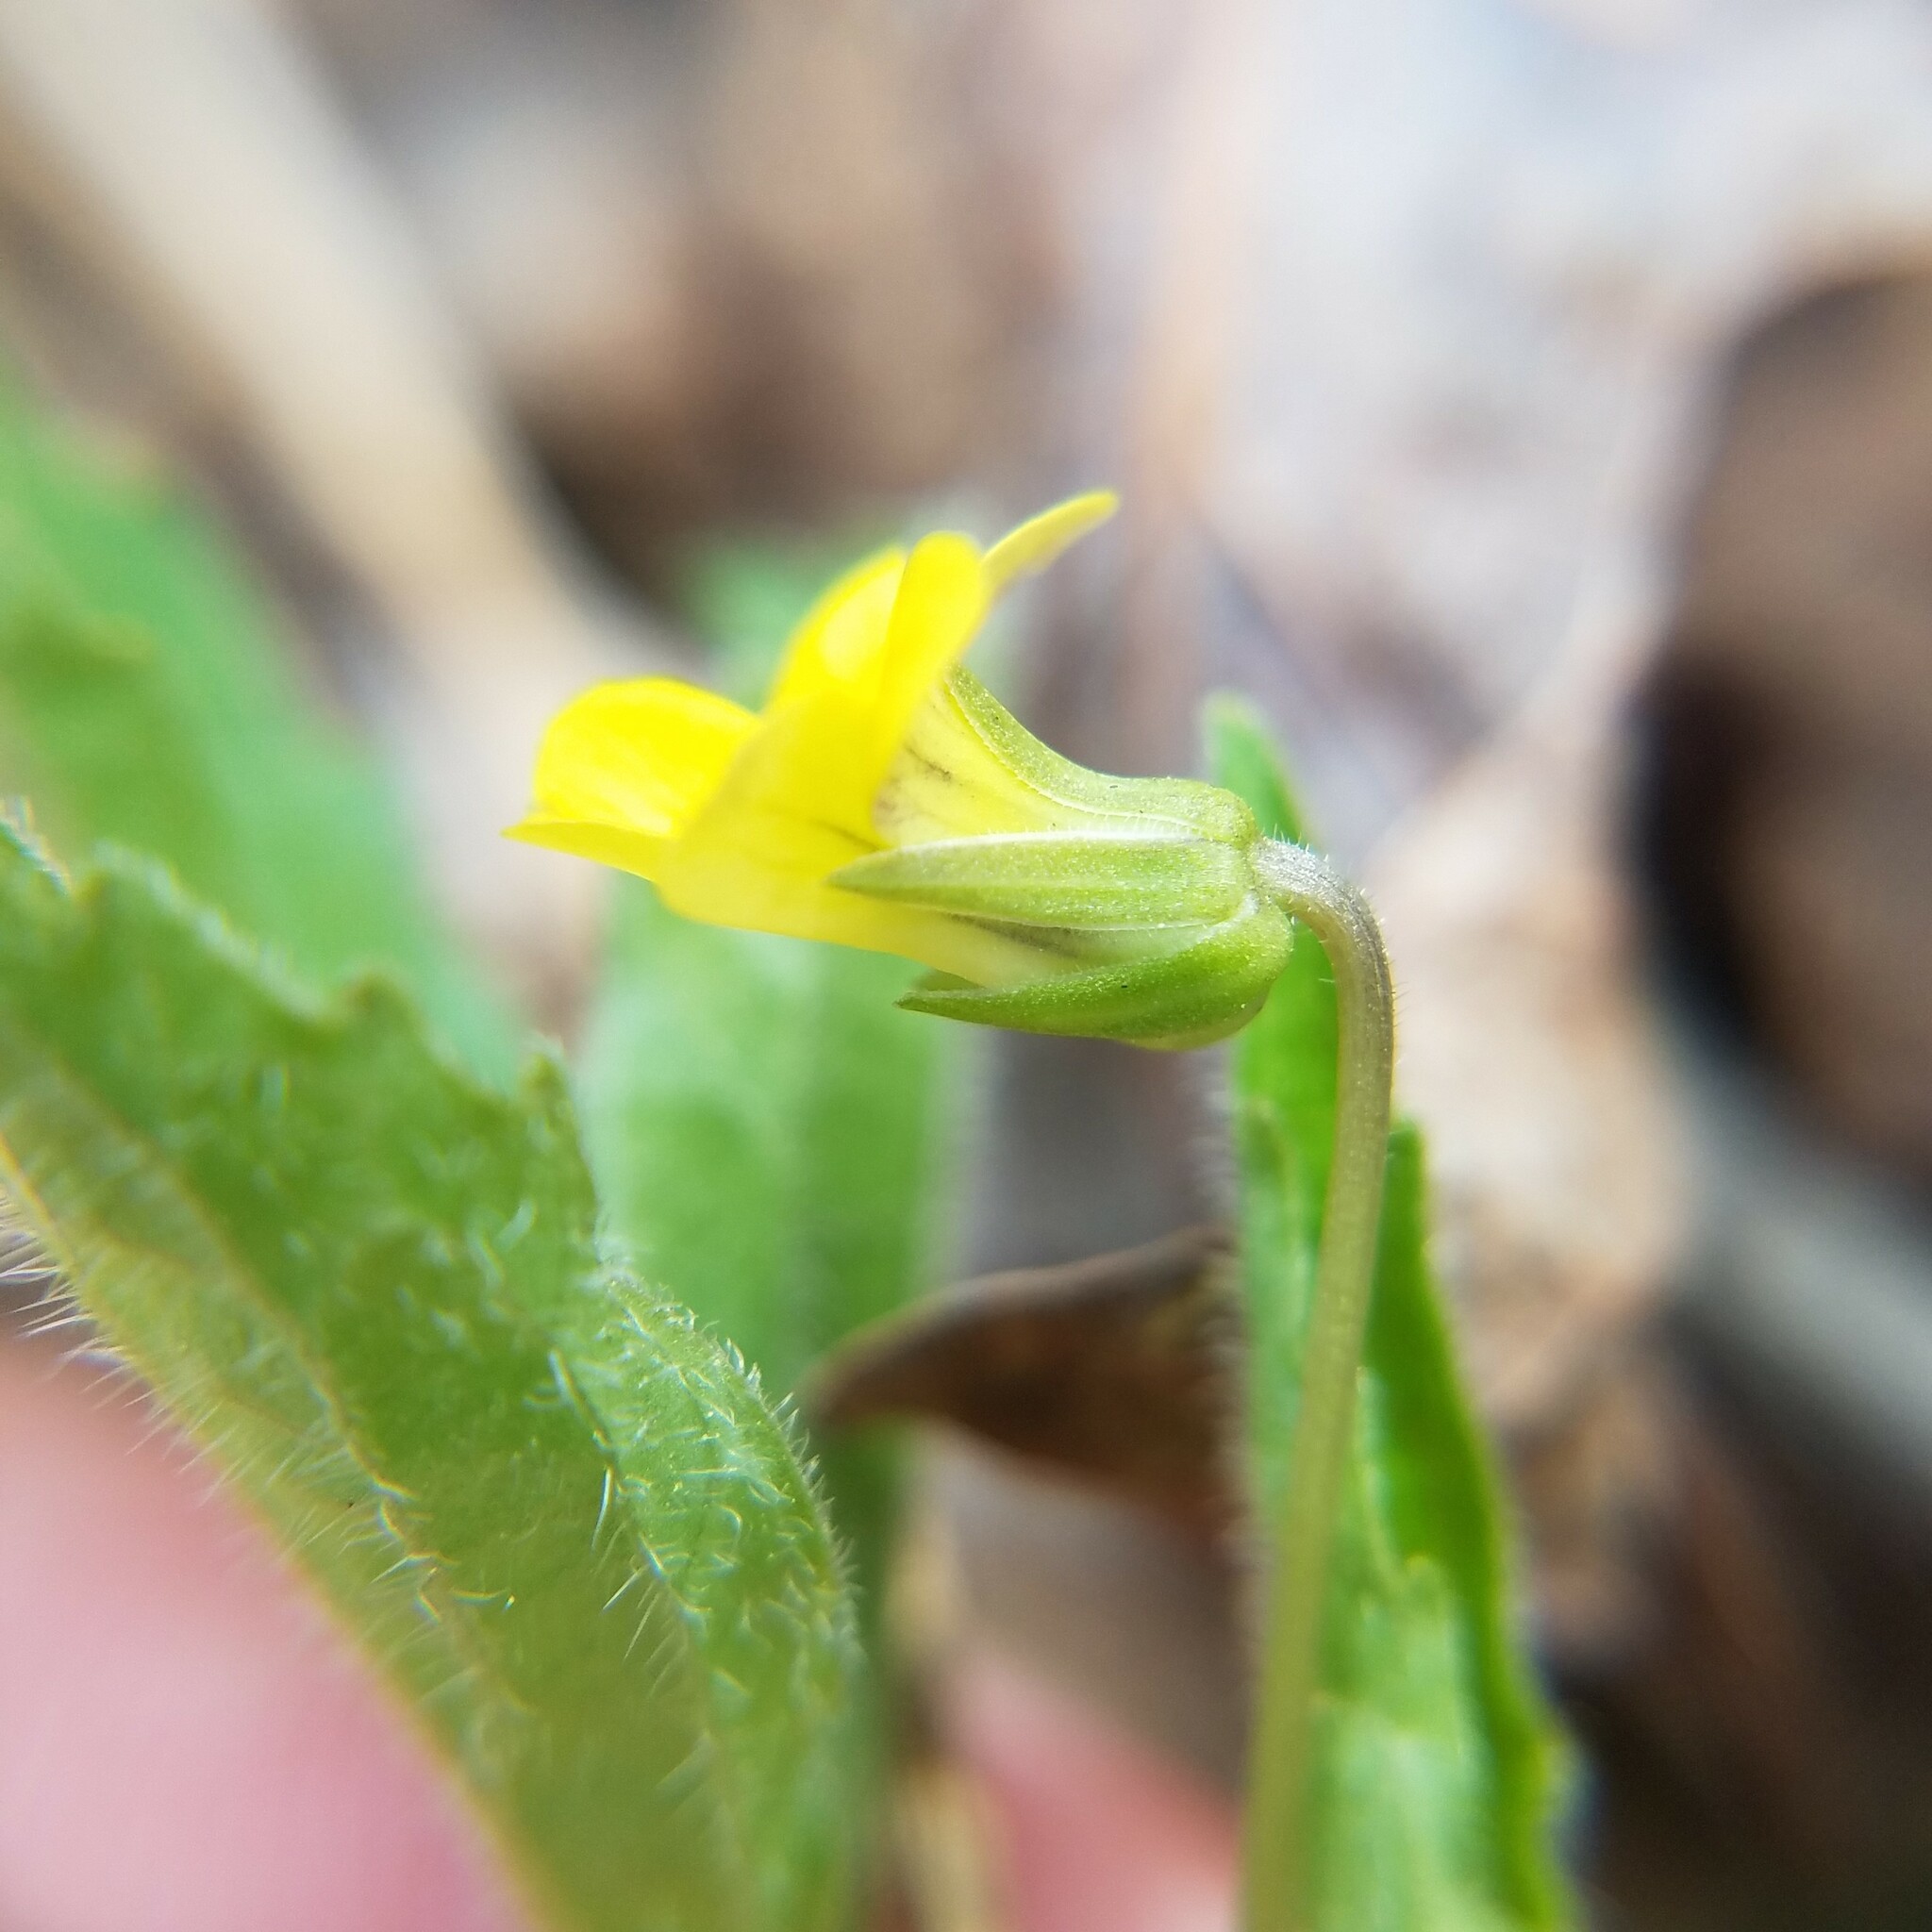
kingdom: Plantae
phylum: Tracheophyta
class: Magnoliopsida
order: Malpighiales
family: Violaceae
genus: Viola
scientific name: Viola tripartita
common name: Three-part violet
